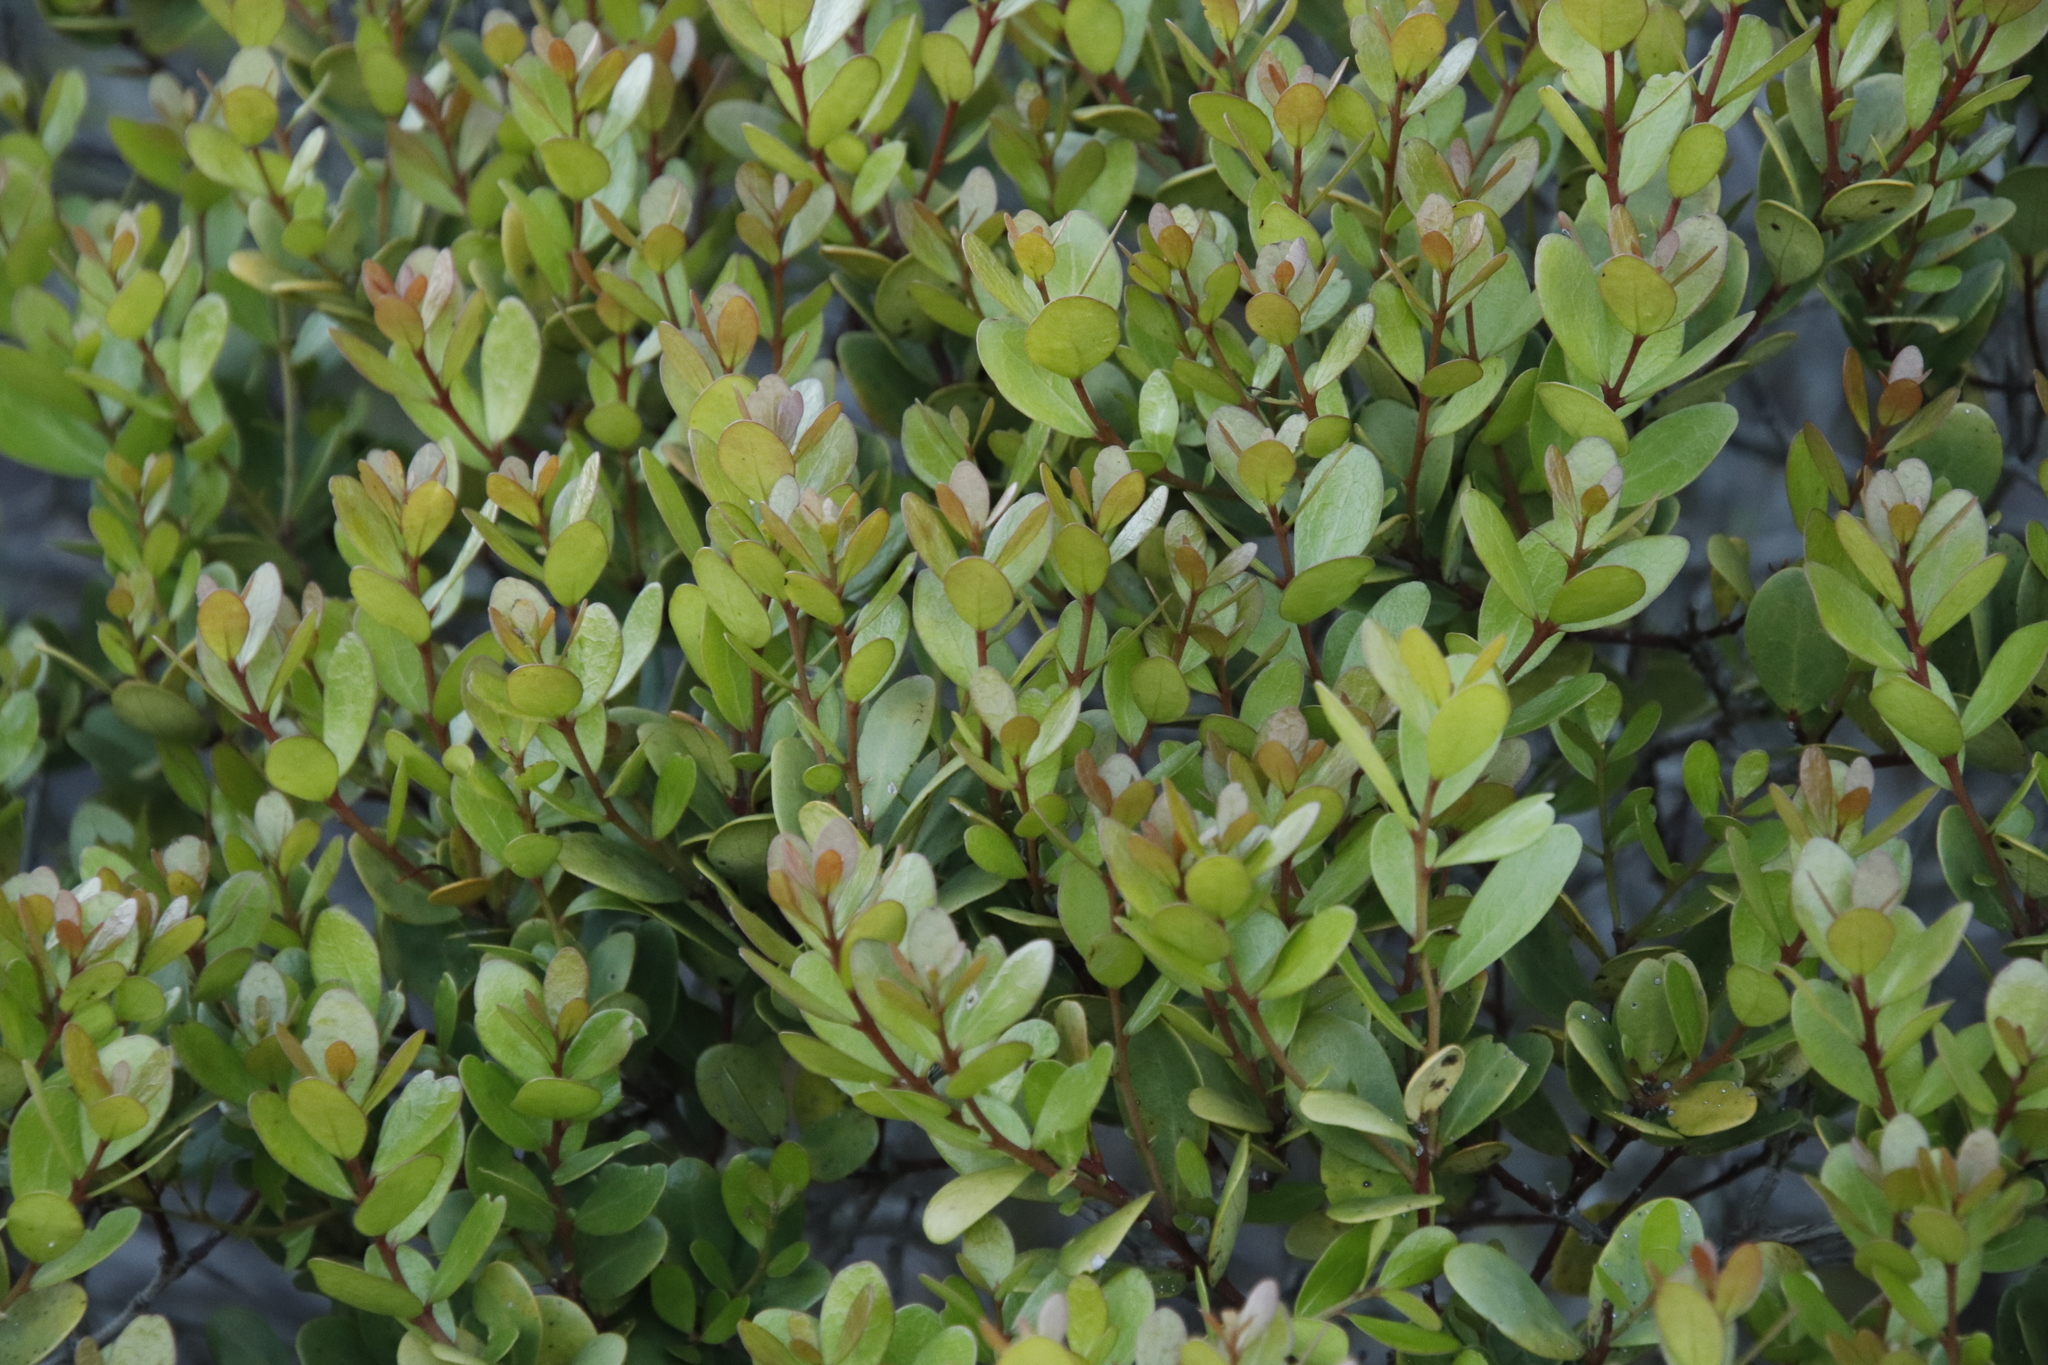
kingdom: Plantae
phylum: Tracheophyta
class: Magnoliopsida
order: Ericales
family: Ebenaceae
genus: Euclea
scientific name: Euclea racemosa
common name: Dune guarri
